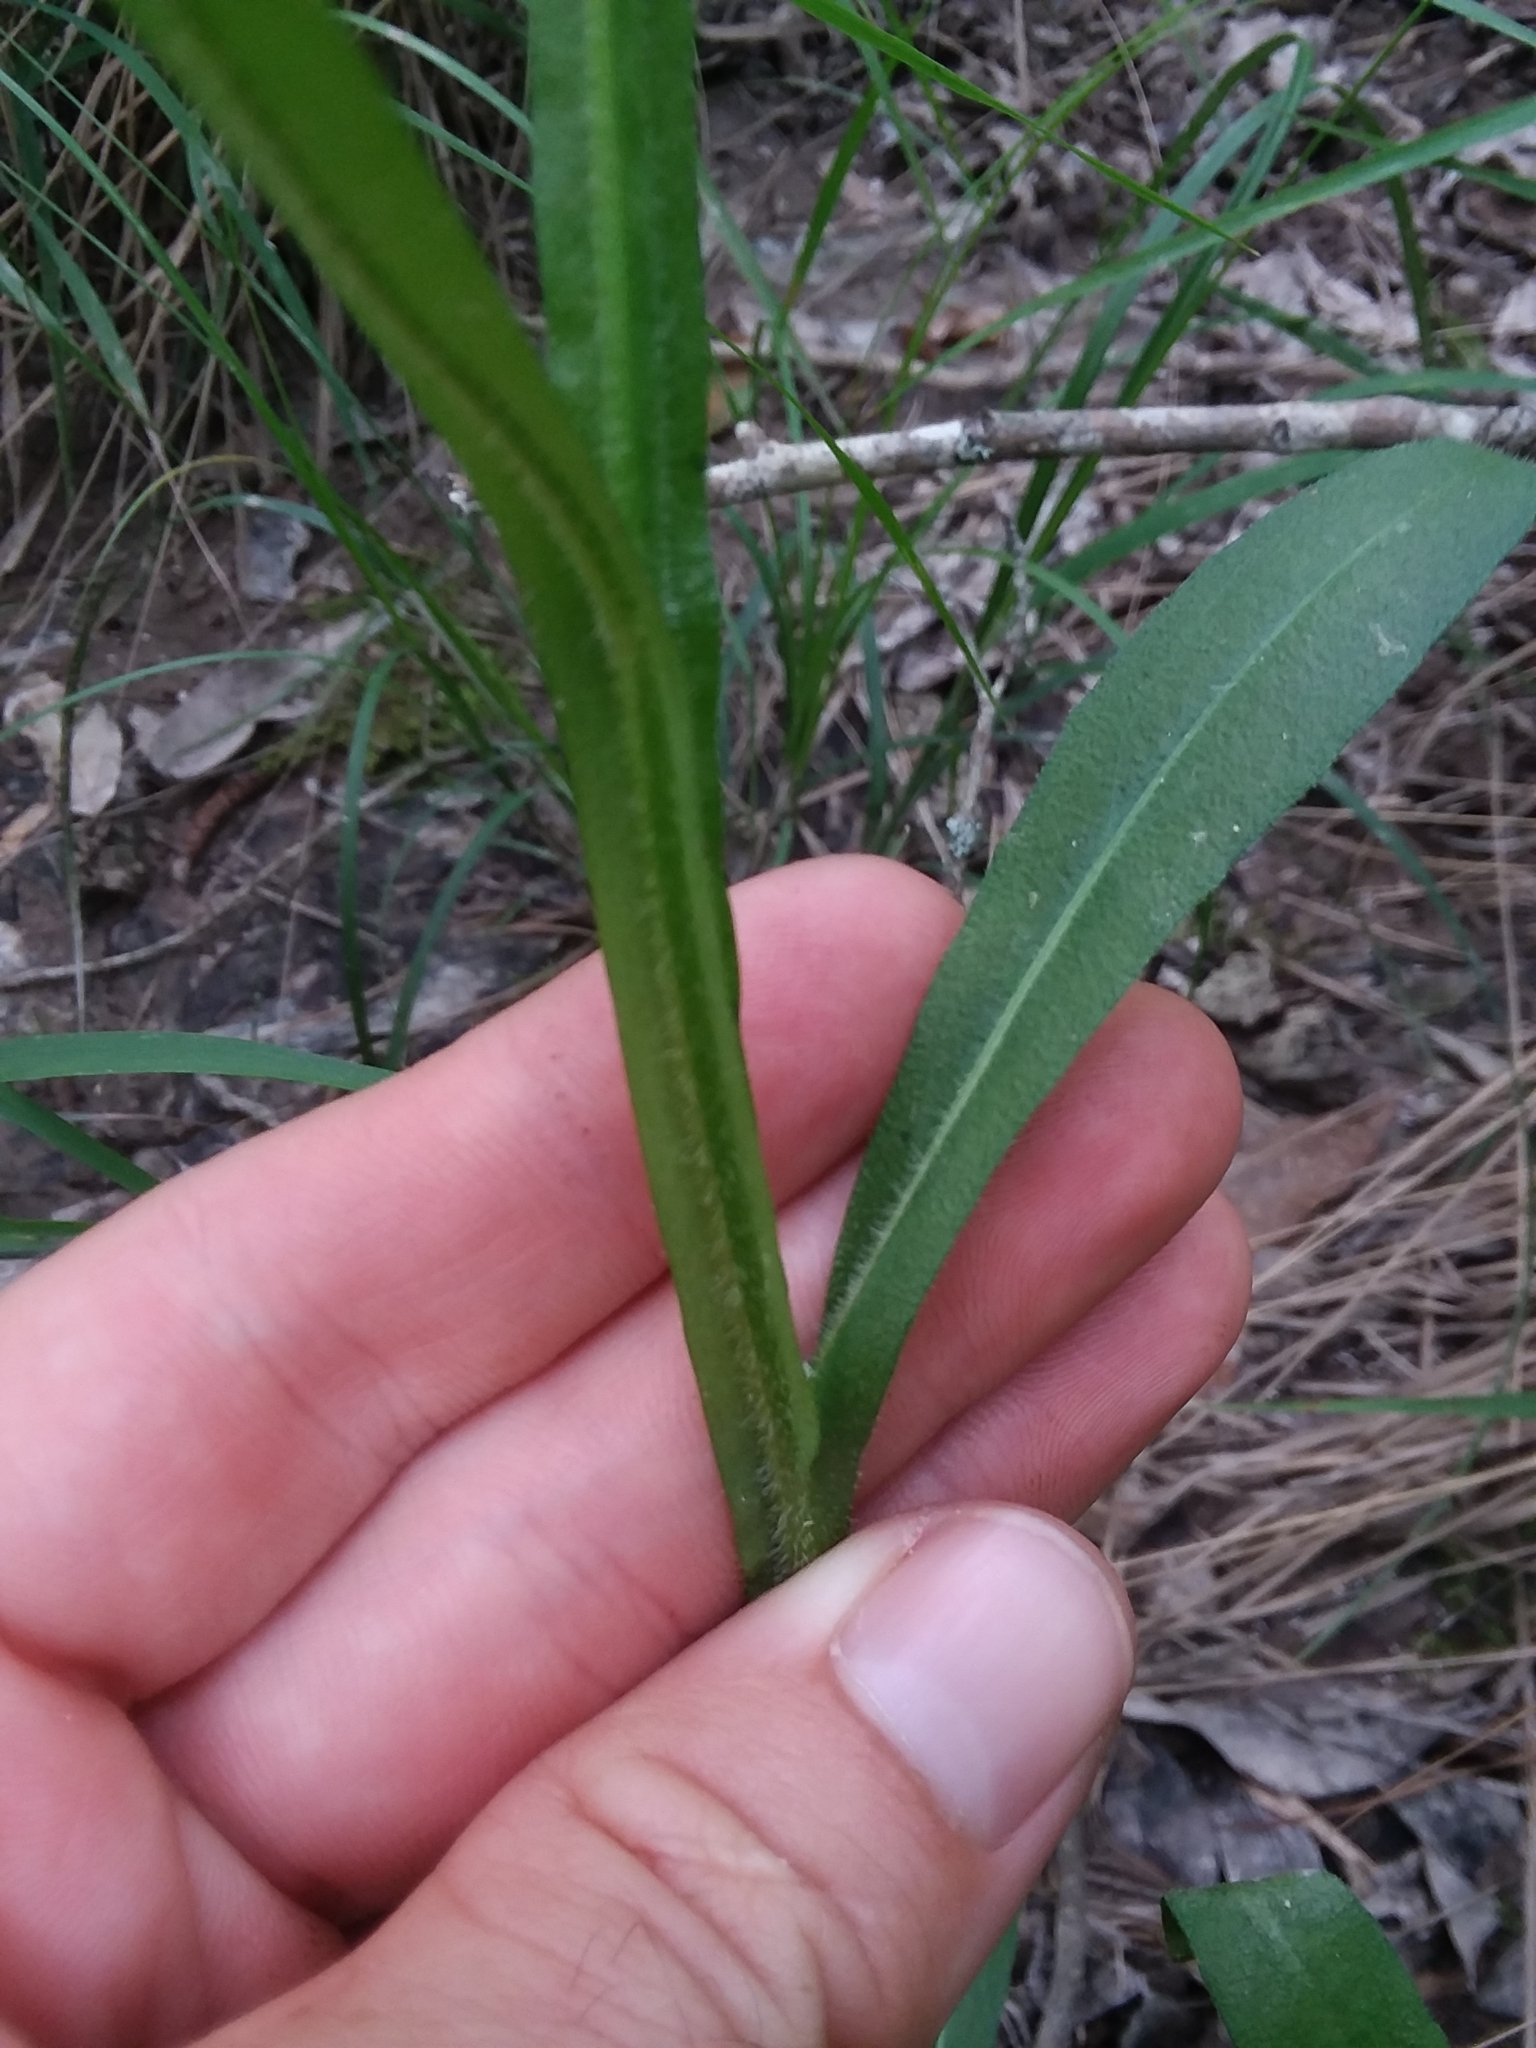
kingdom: Plantae
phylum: Tracheophyta
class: Magnoliopsida
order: Asterales
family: Asteraceae
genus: Helenium
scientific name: Helenium flexuosum
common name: Naked-flowered sneezeweed
